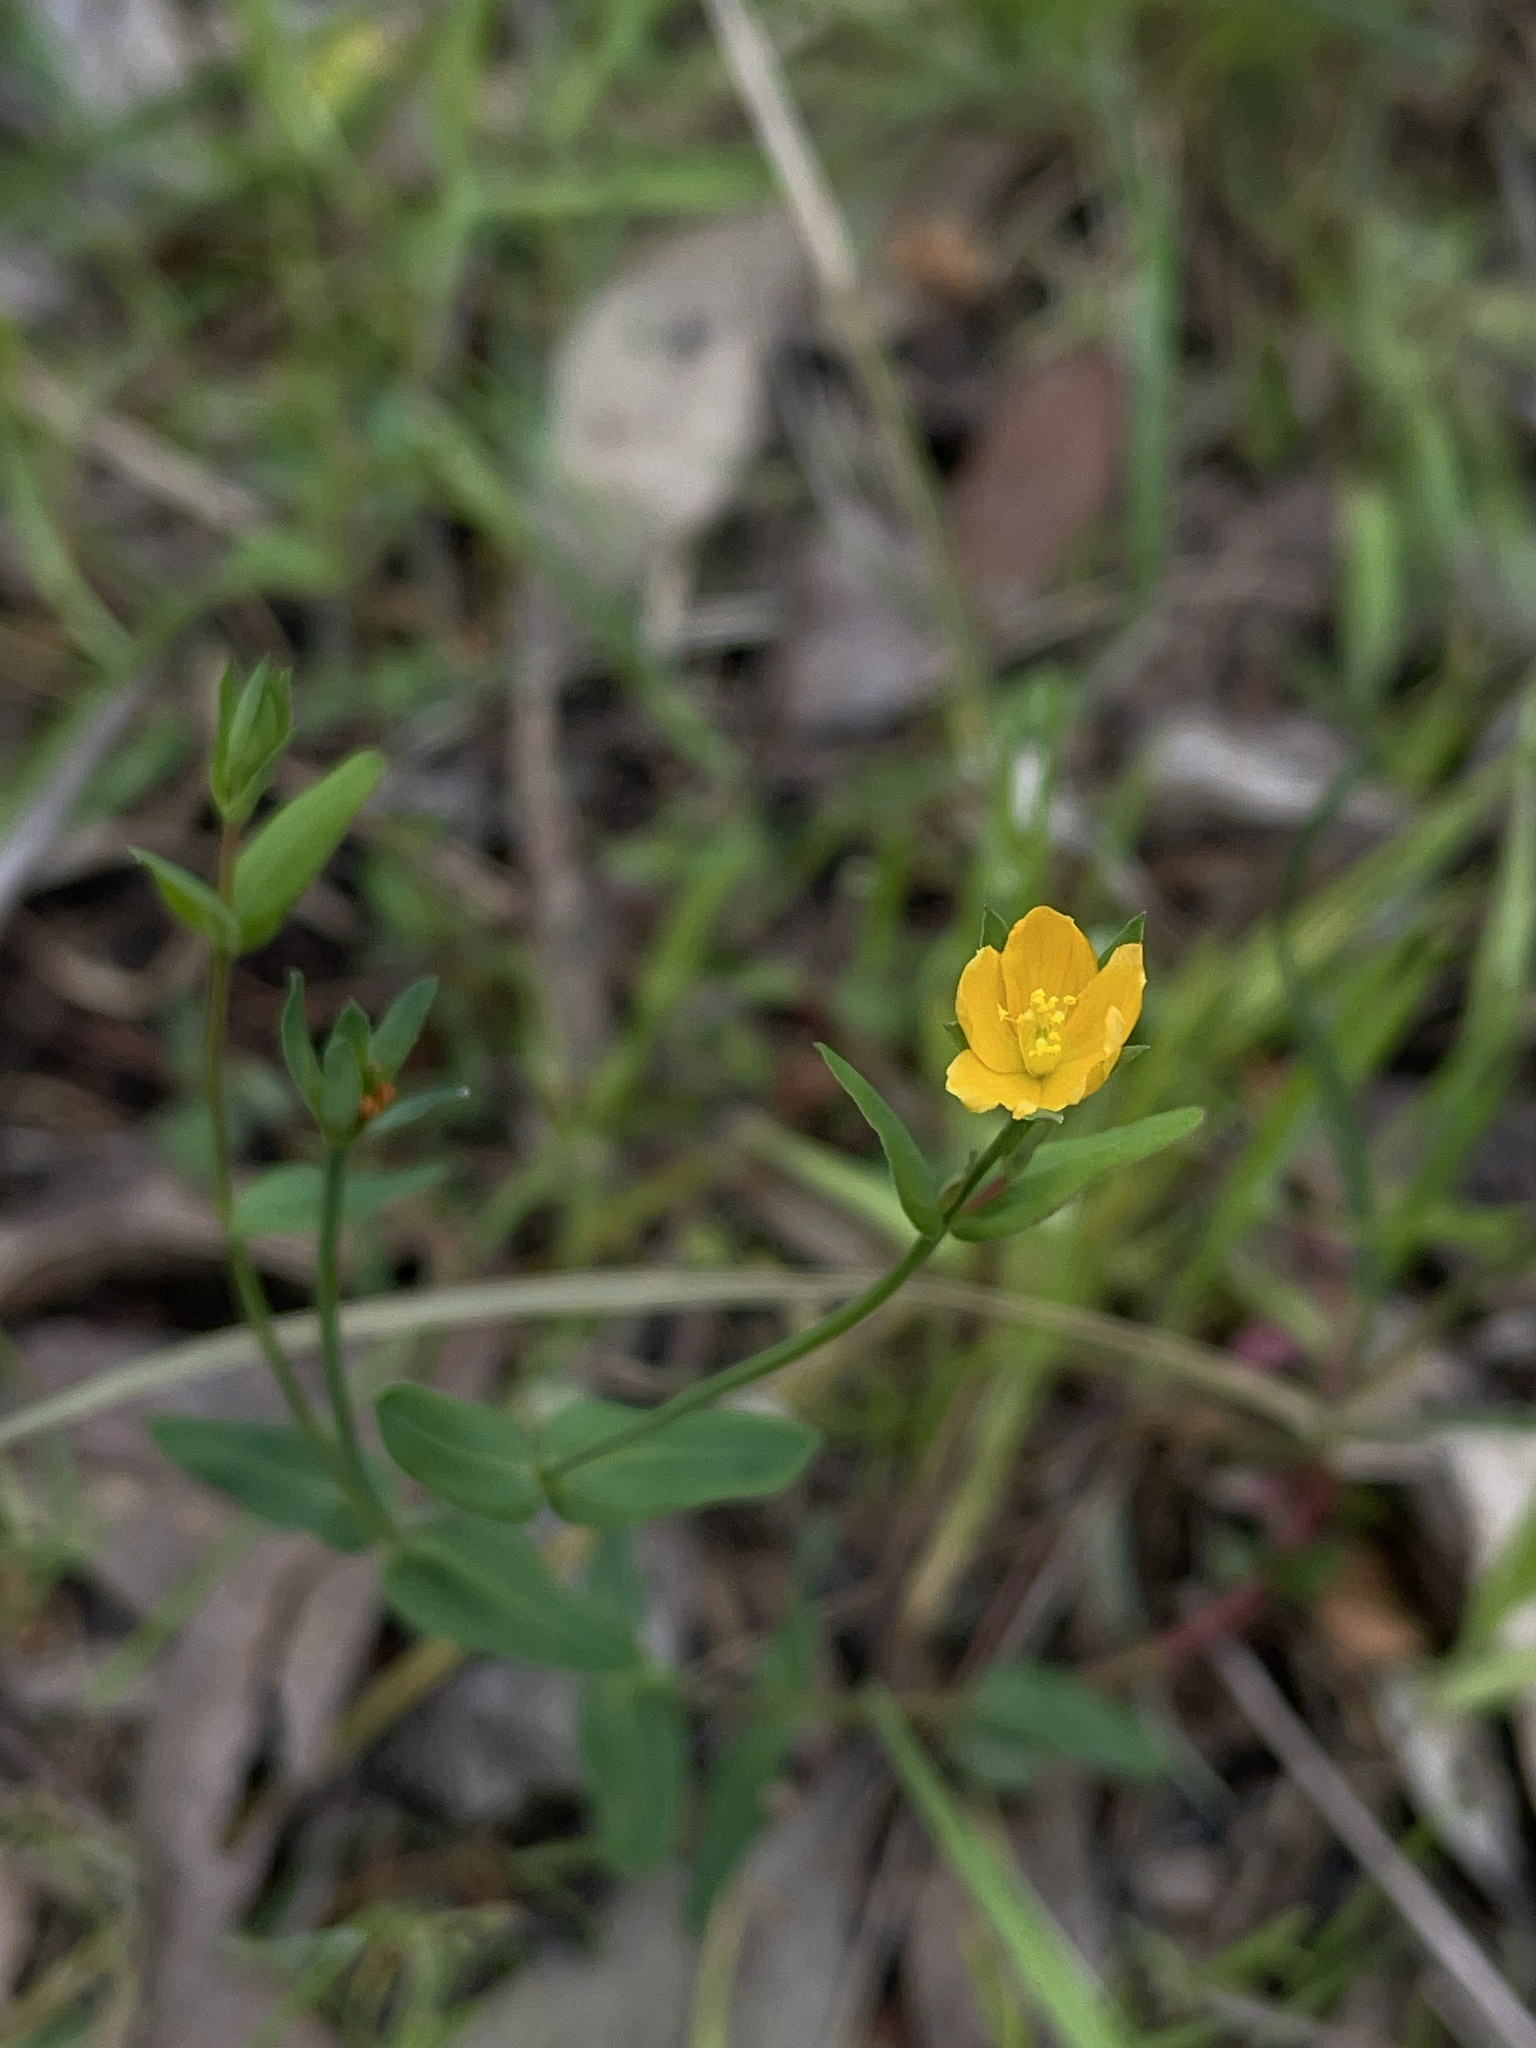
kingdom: Plantae
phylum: Tracheophyta
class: Magnoliopsida
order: Malpighiales
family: Hypericaceae
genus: Hypericum
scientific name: Hypericum gramineum
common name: Grassy st. johnswort
